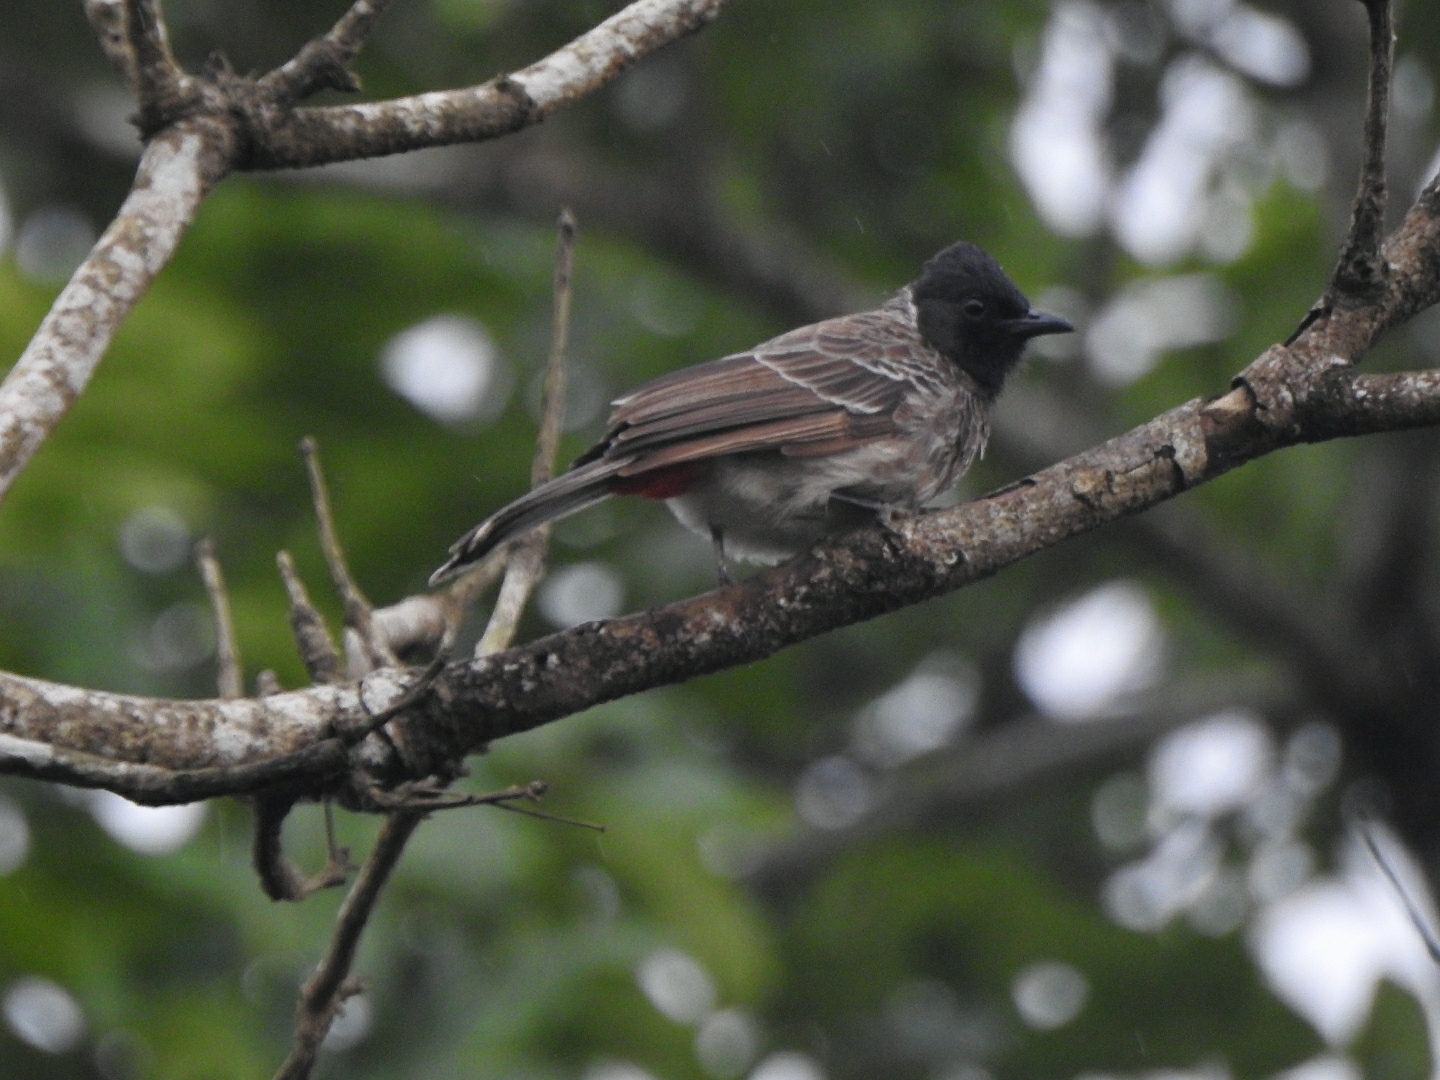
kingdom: Animalia
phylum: Chordata
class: Aves
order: Passeriformes
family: Pycnonotidae
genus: Pycnonotus
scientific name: Pycnonotus cafer
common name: Red-vented bulbul
